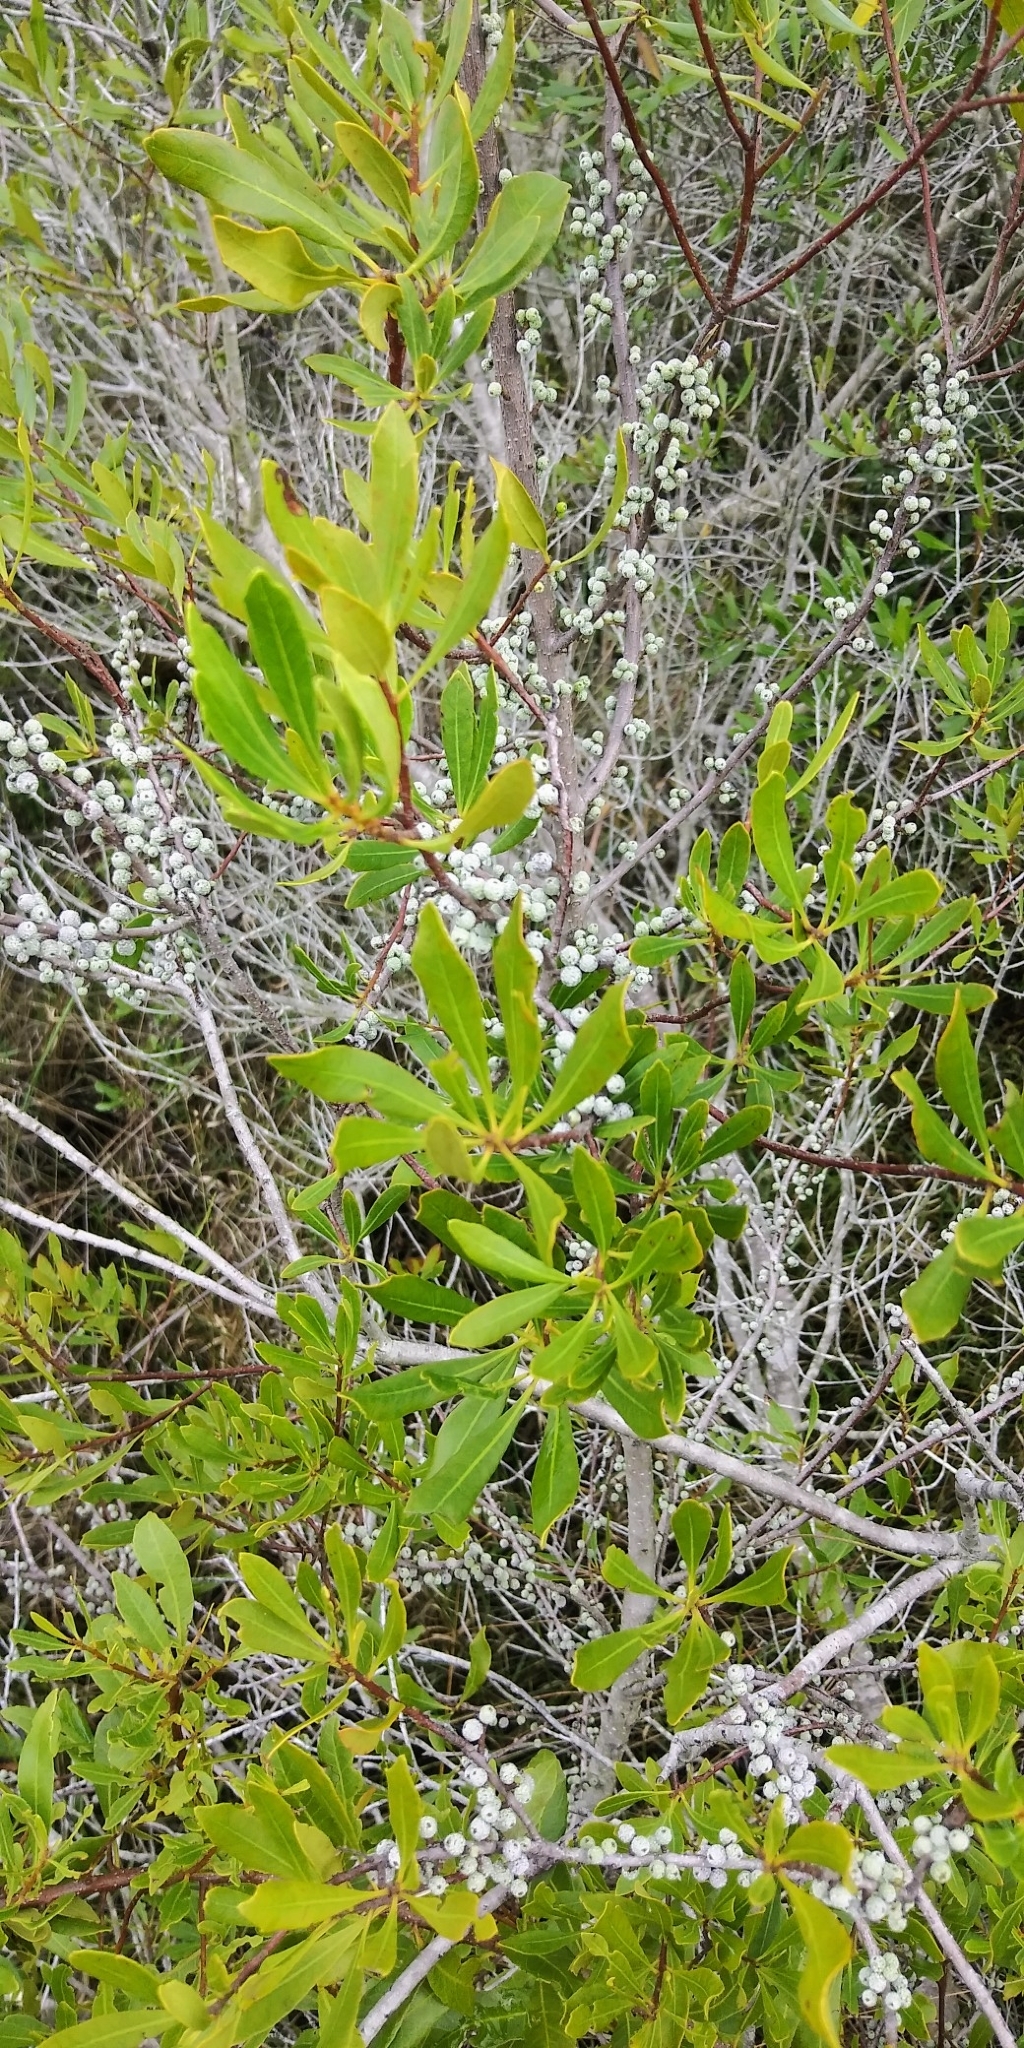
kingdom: Plantae
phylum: Tracheophyta
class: Magnoliopsida
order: Fagales
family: Myricaceae
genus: Morella
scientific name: Morella cerifera
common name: Wax myrtle
